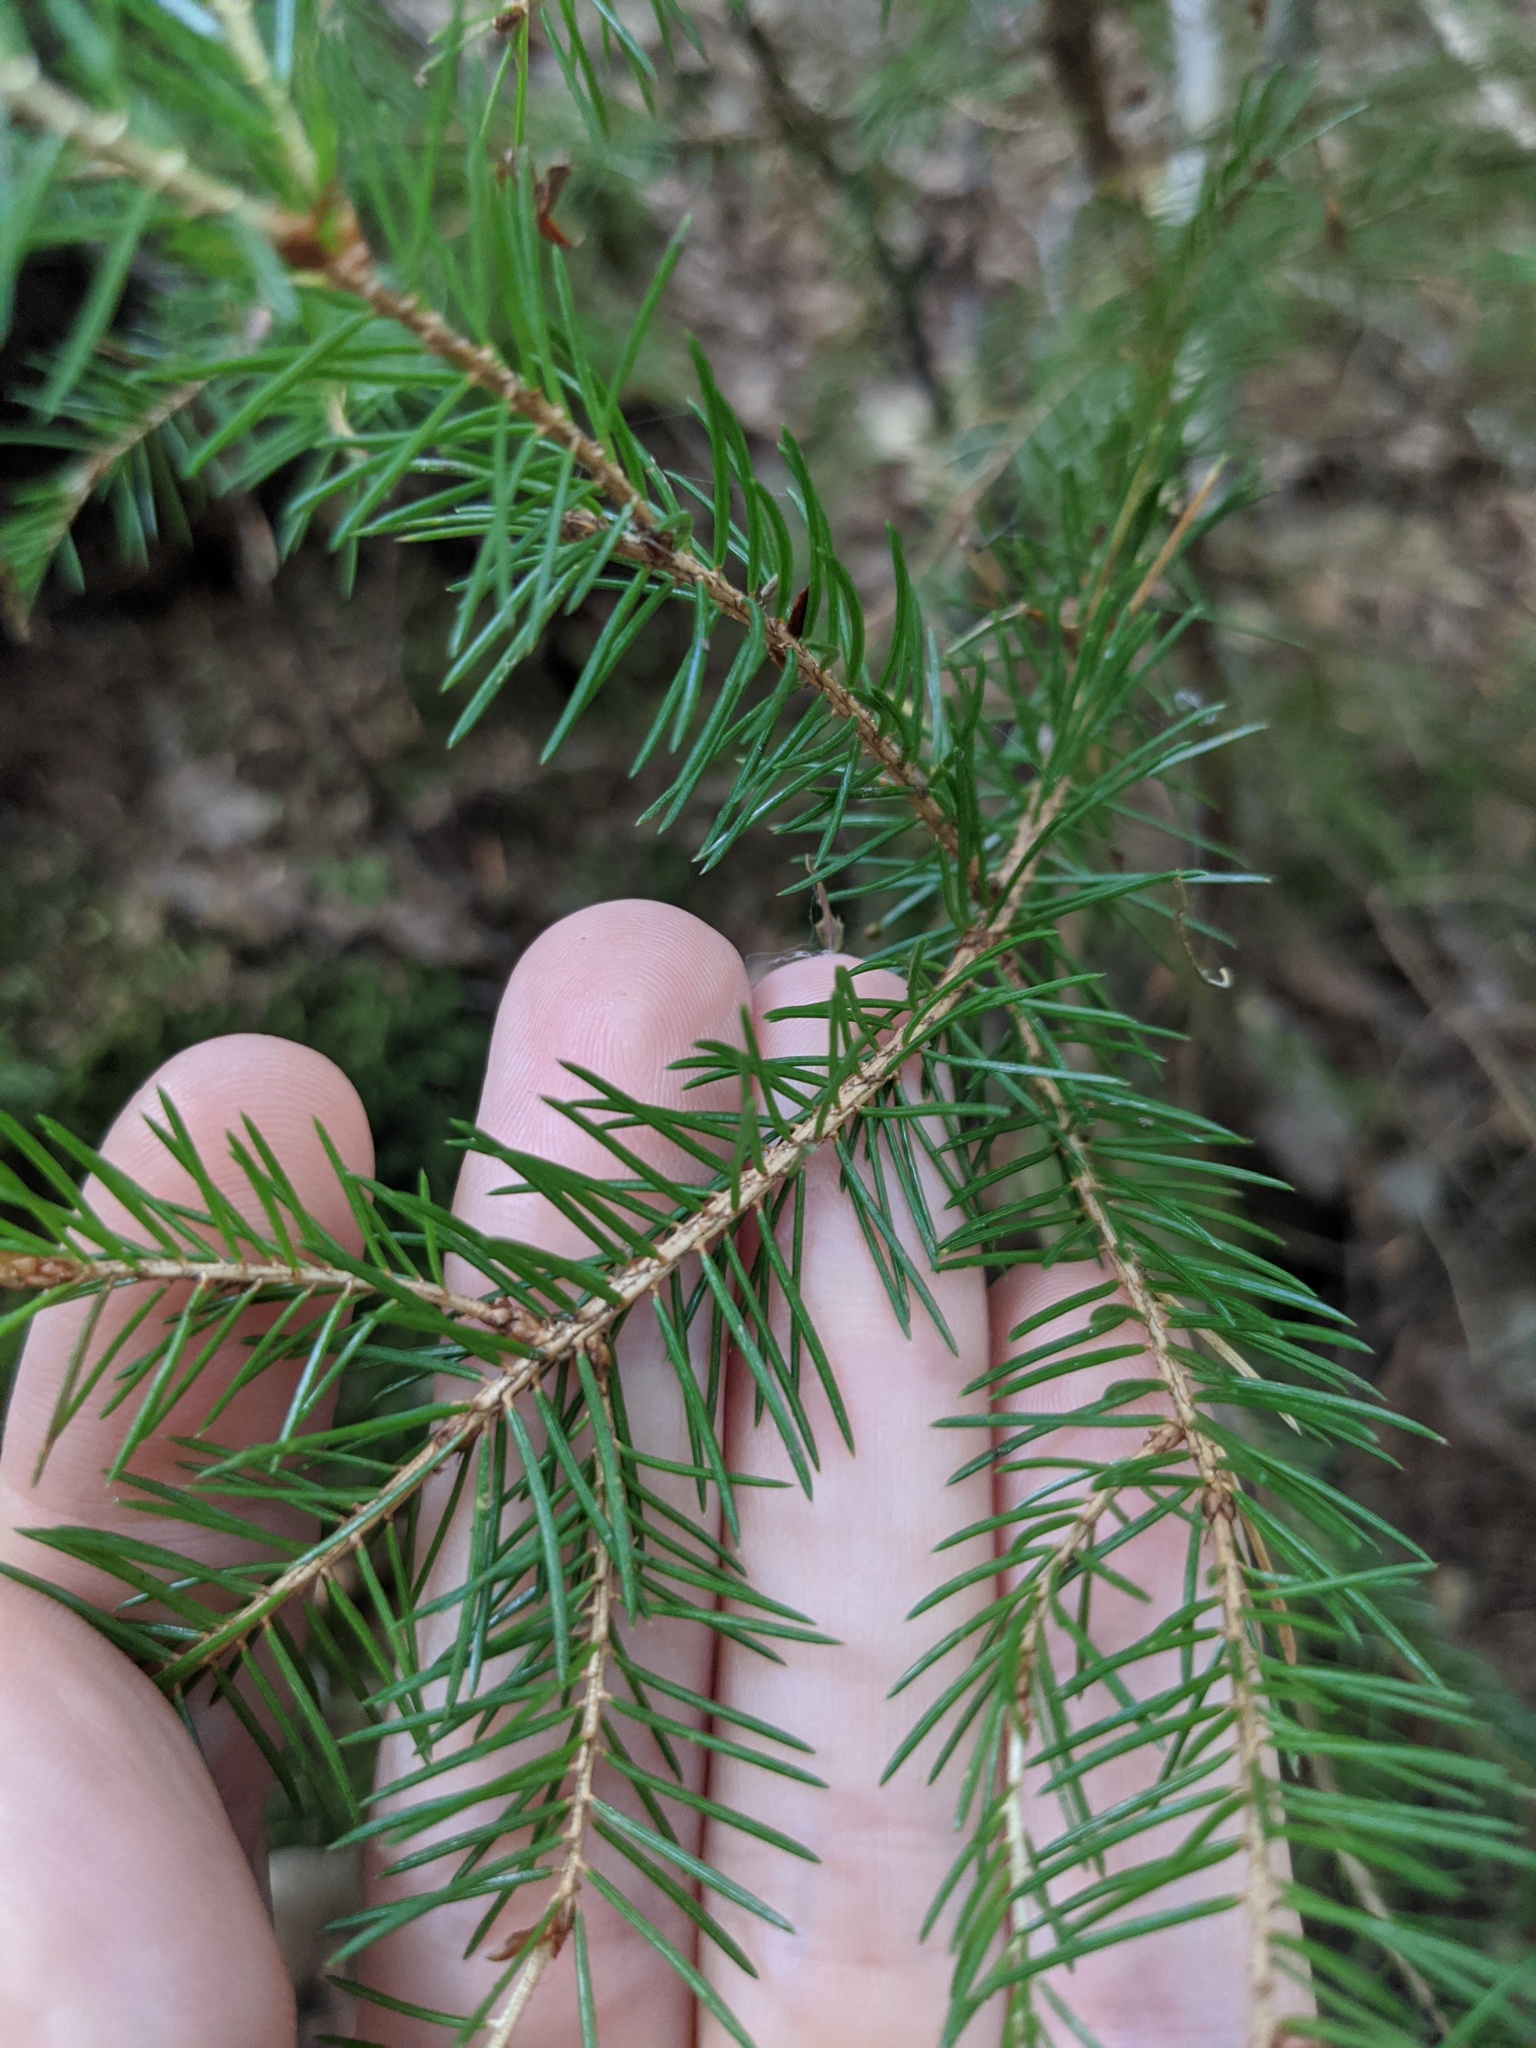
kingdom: Plantae
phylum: Tracheophyta
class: Pinopsida
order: Pinales
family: Pinaceae
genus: Picea
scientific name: Picea rubens
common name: Red spruce
